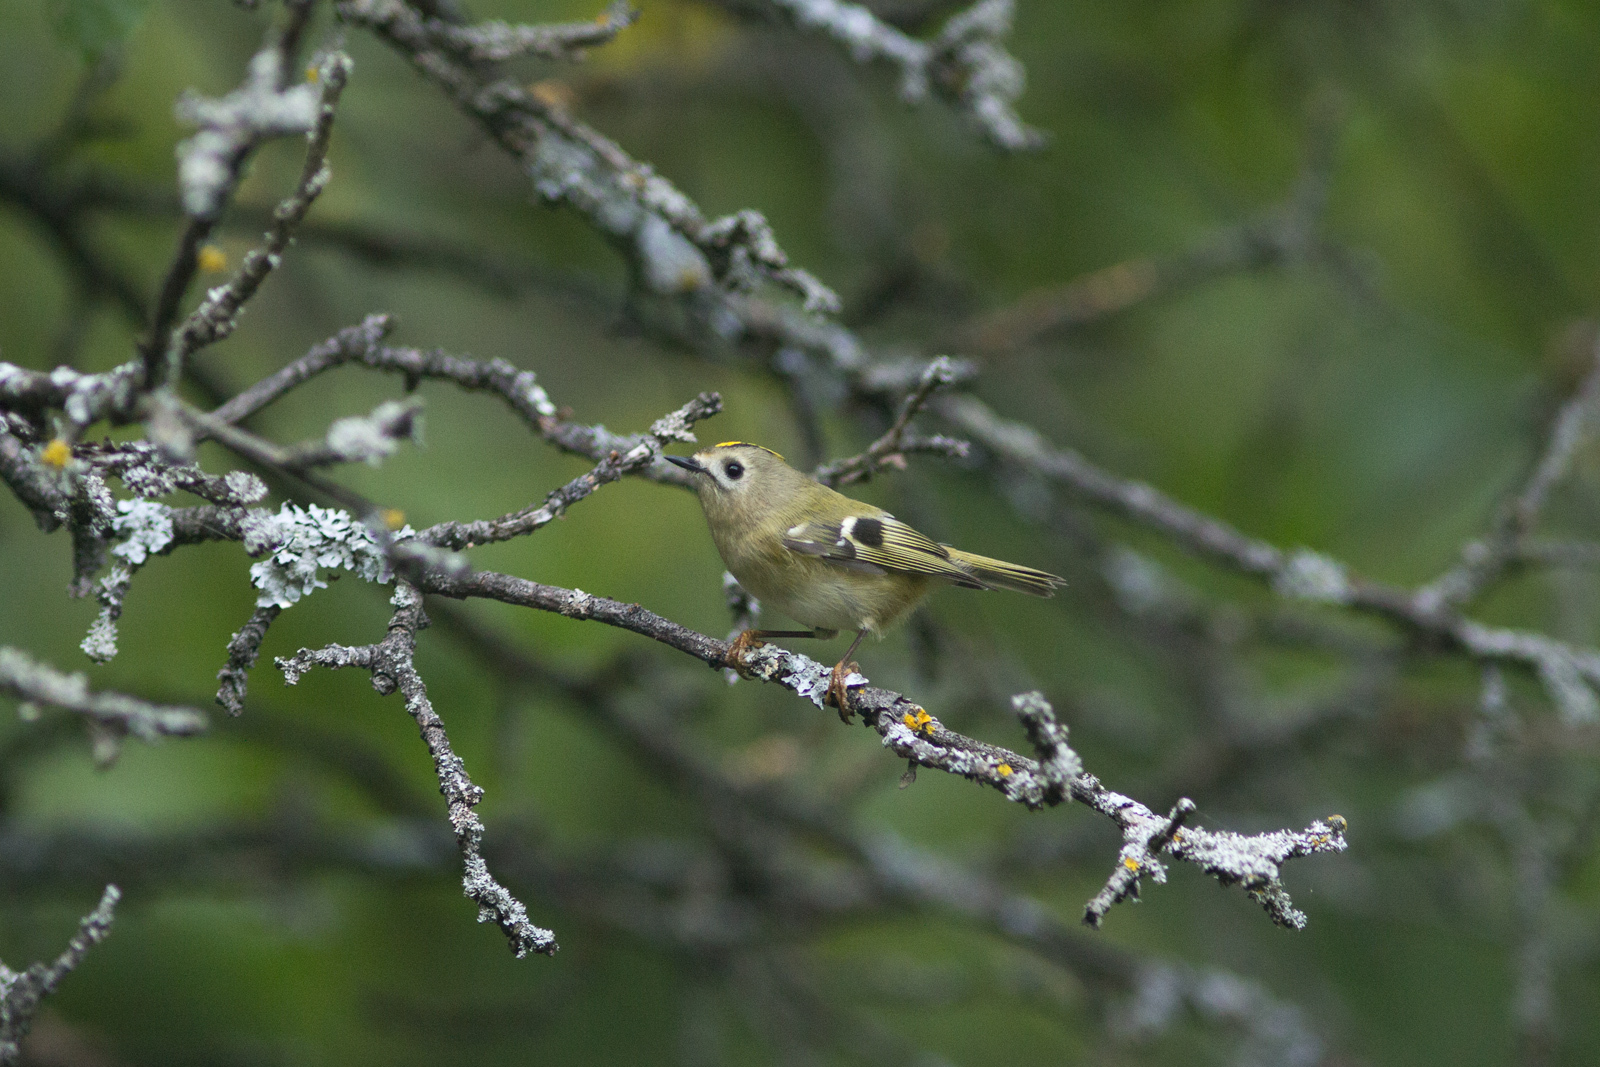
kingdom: Animalia
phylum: Chordata
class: Aves
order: Passeriformes
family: Regulidae
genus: Regulus
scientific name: Regulus regulus
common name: Goldcrest
